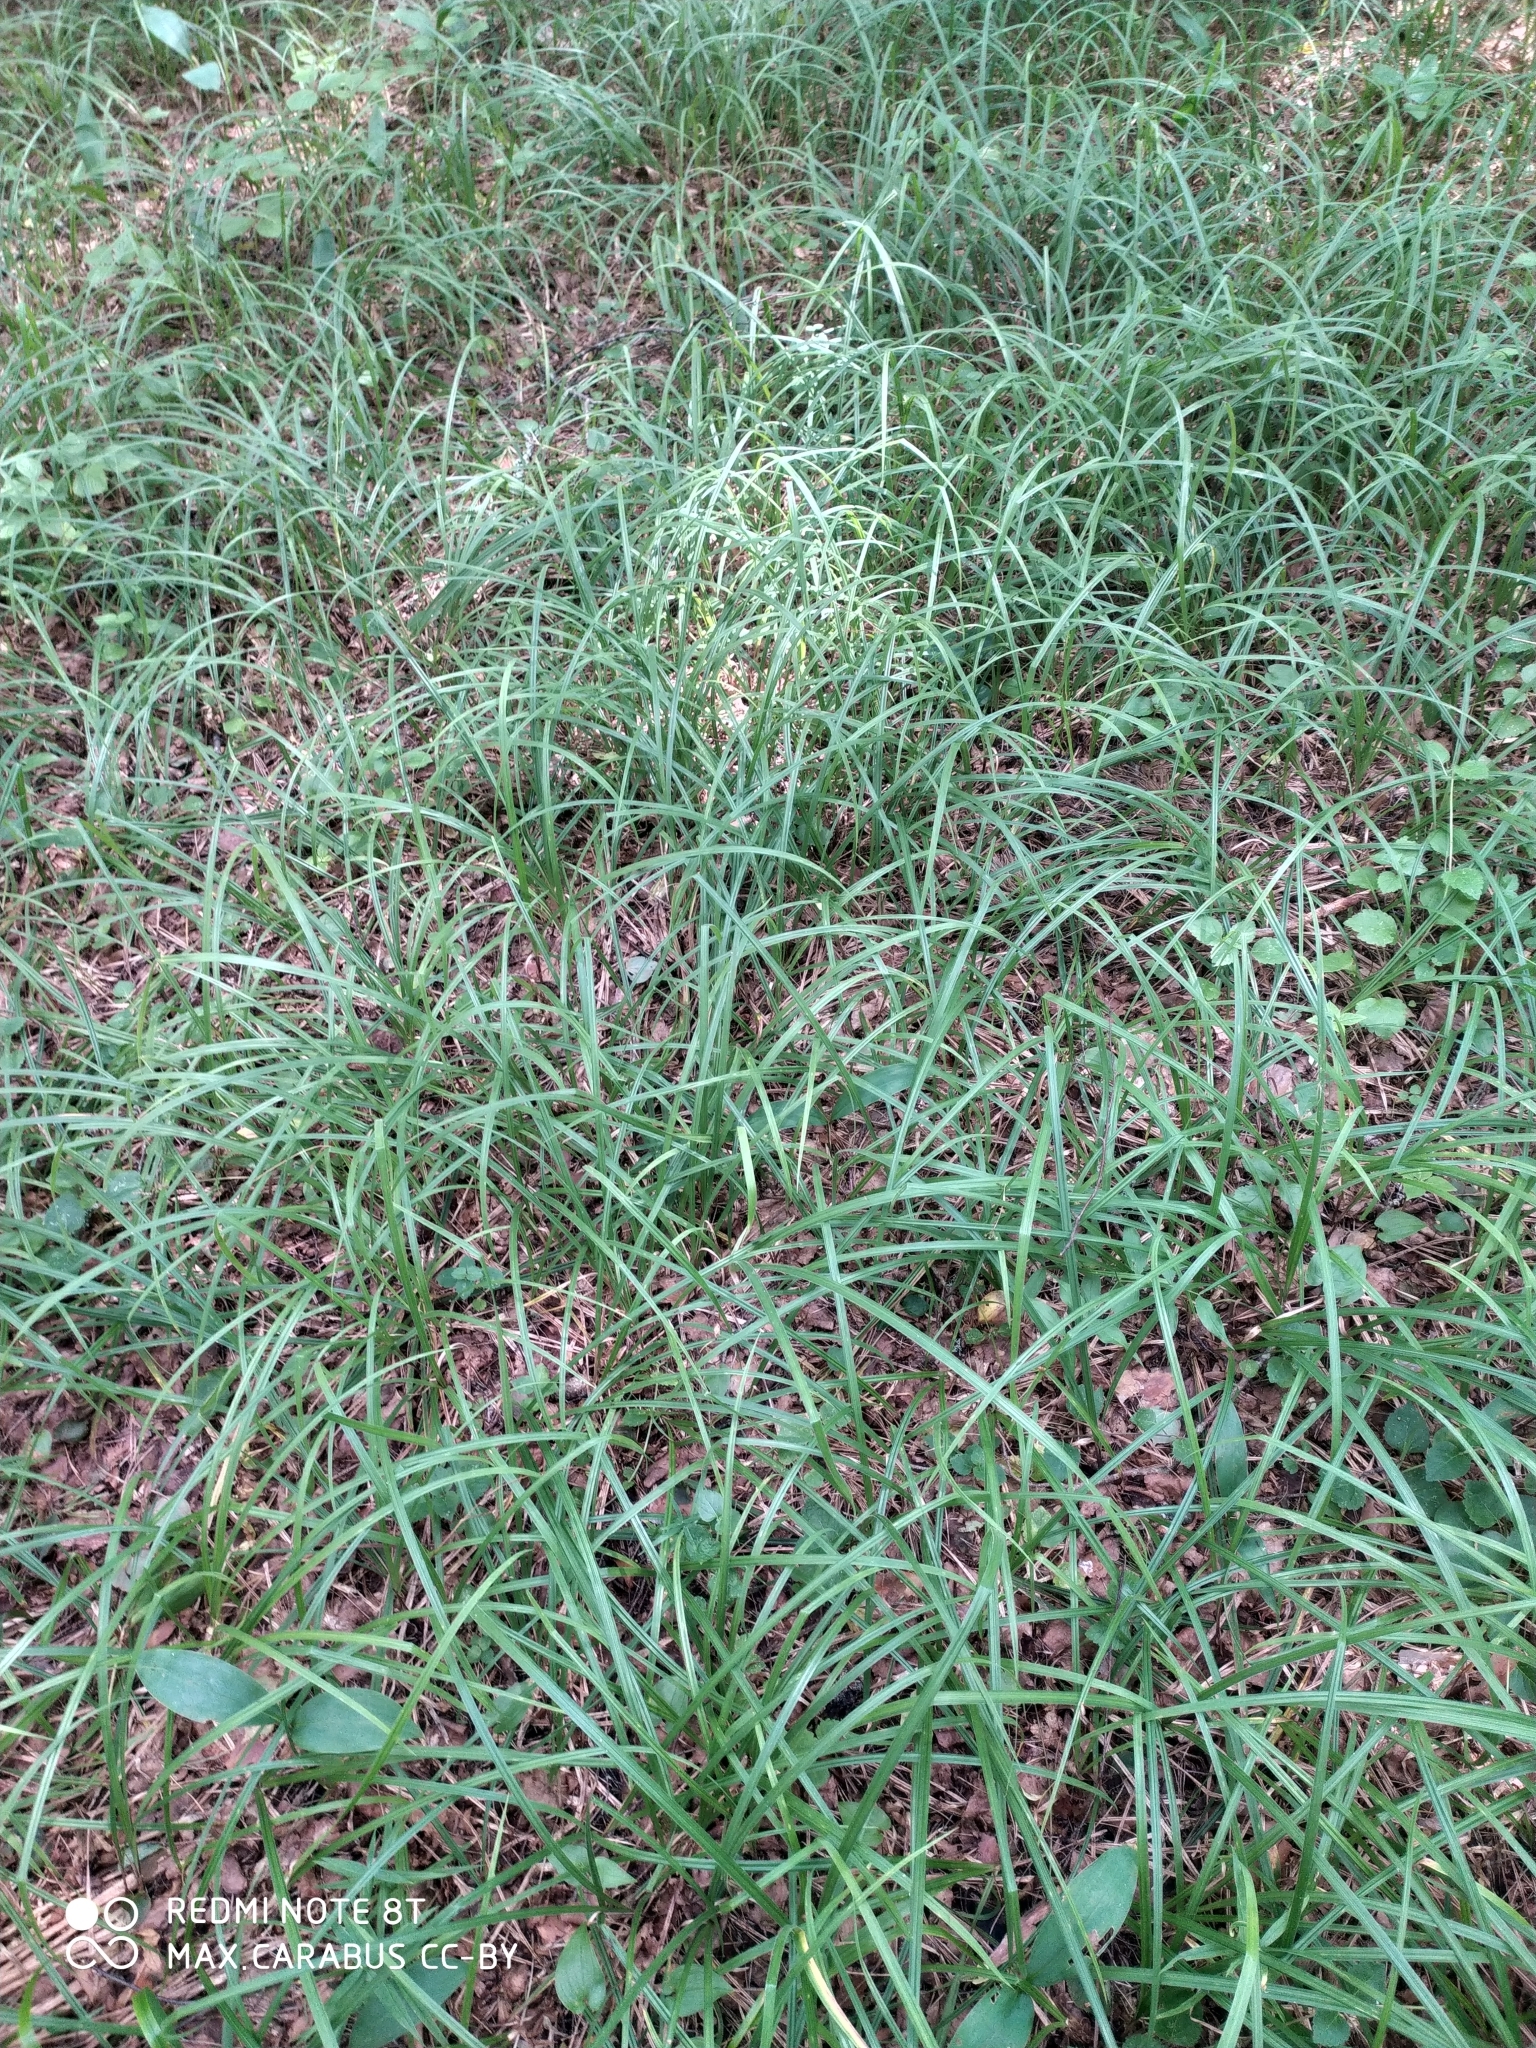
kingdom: Plantae
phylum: Tracheophyta
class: Liliopsida
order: Poales
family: Cyperaceae
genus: Carex
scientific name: Carex pilosa
